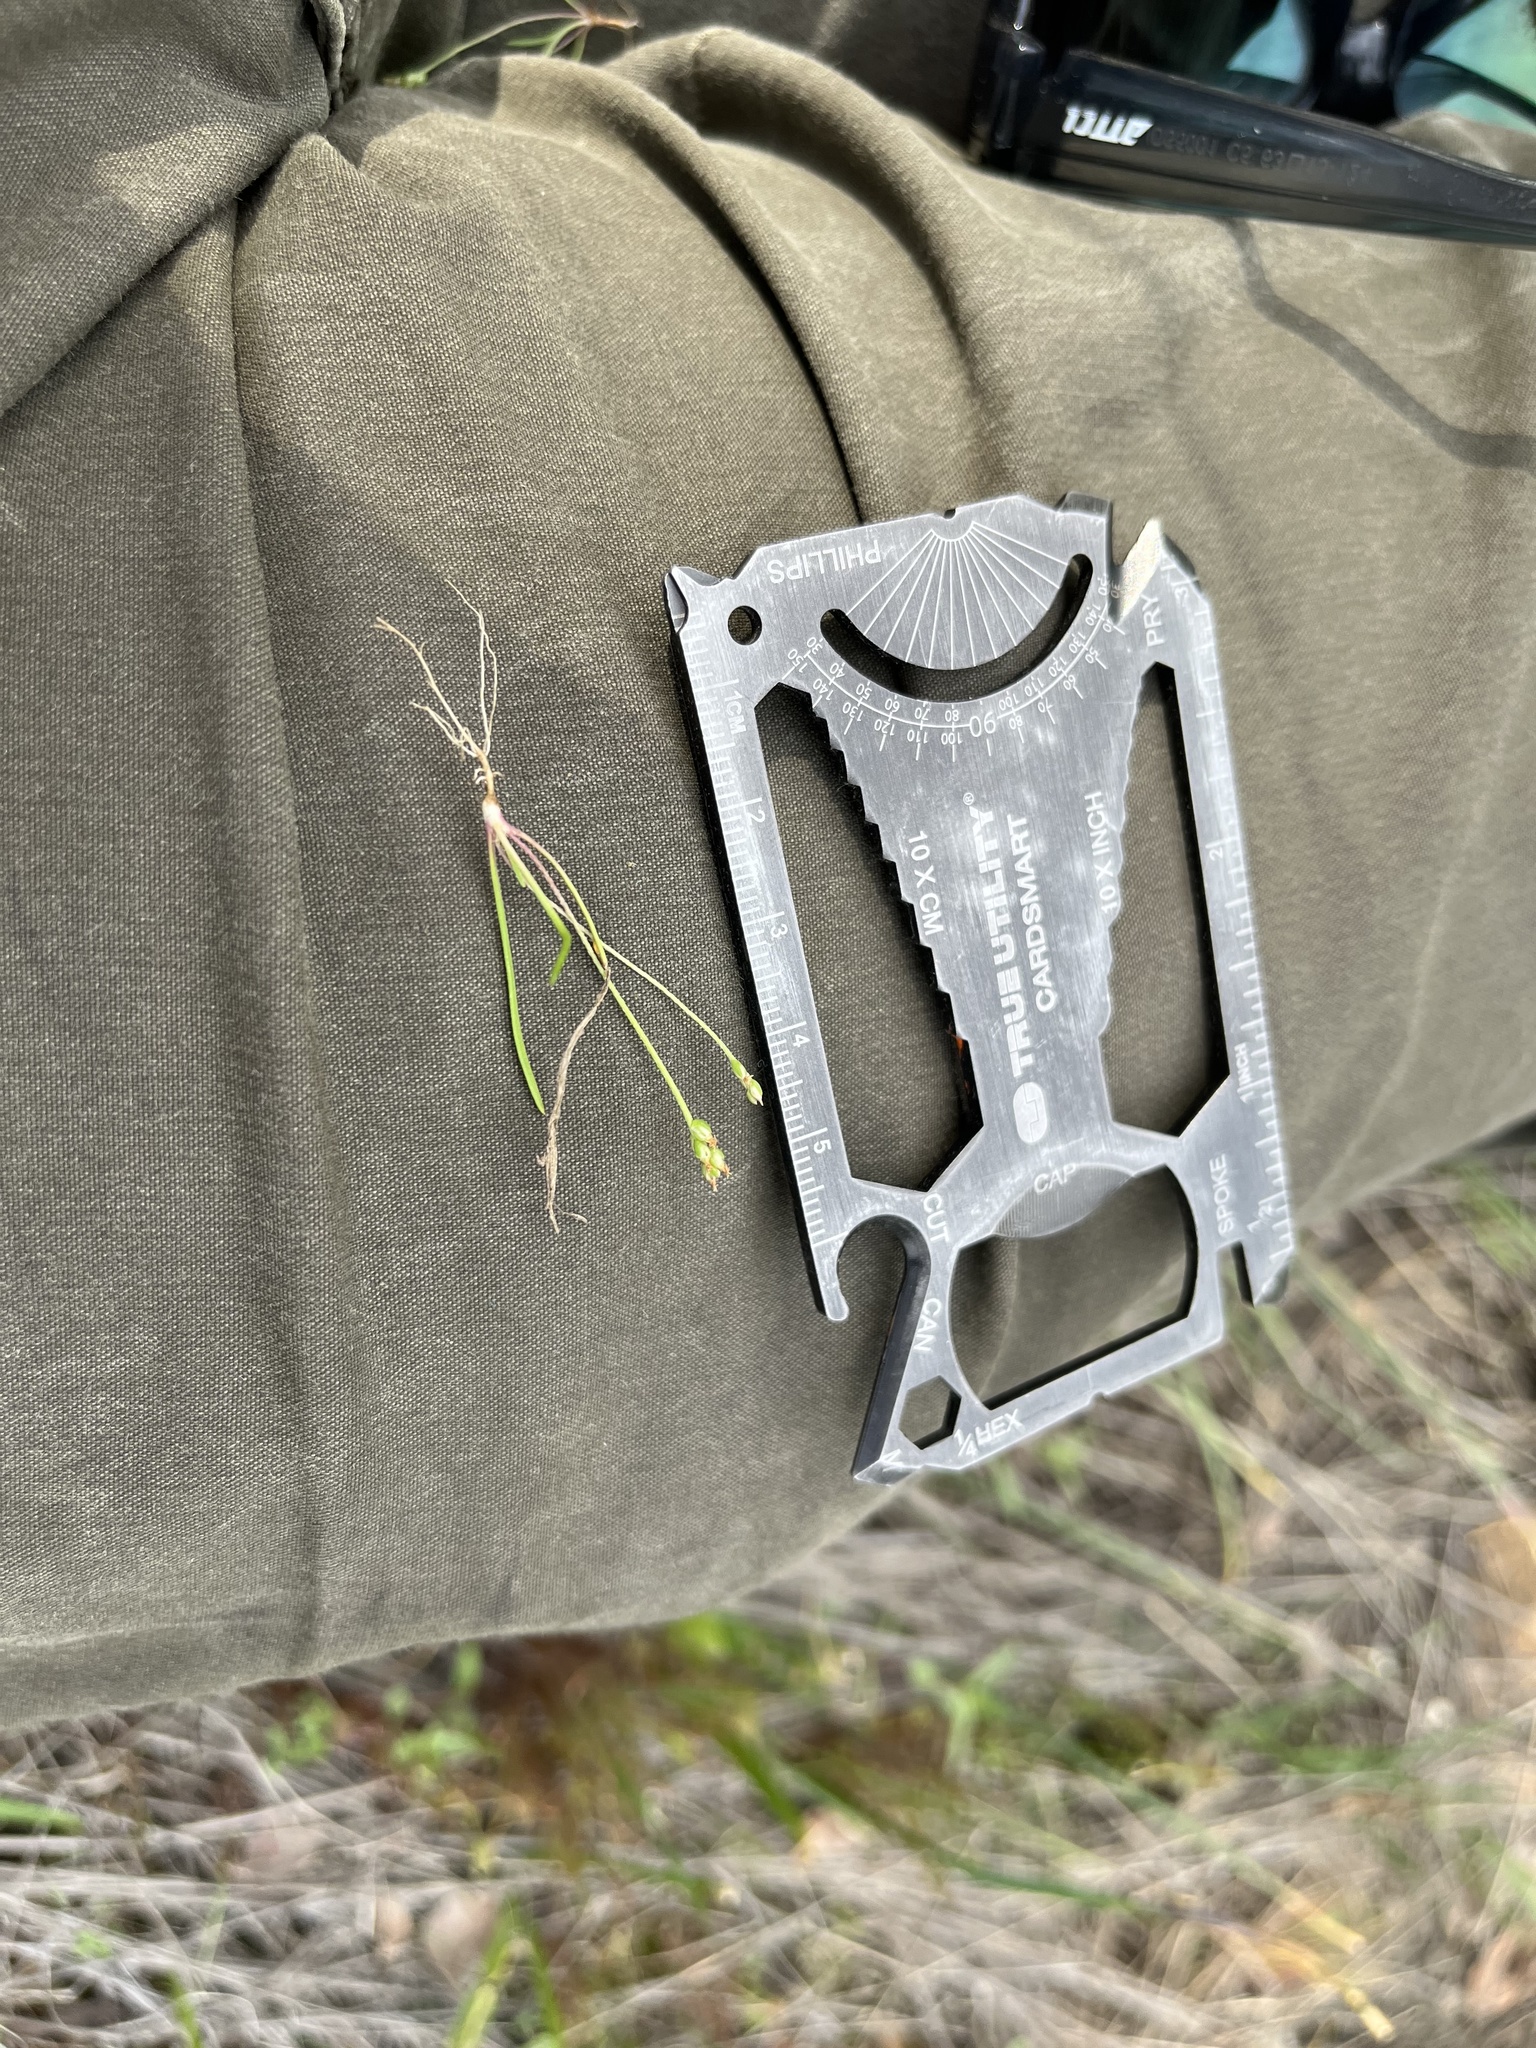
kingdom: Plantae
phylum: Tracheophyta
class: Magnoliopsida
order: Lamiales
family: Plantaginaceae
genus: Plantago
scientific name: Plantago elongata
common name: Linear-leaved plantain
